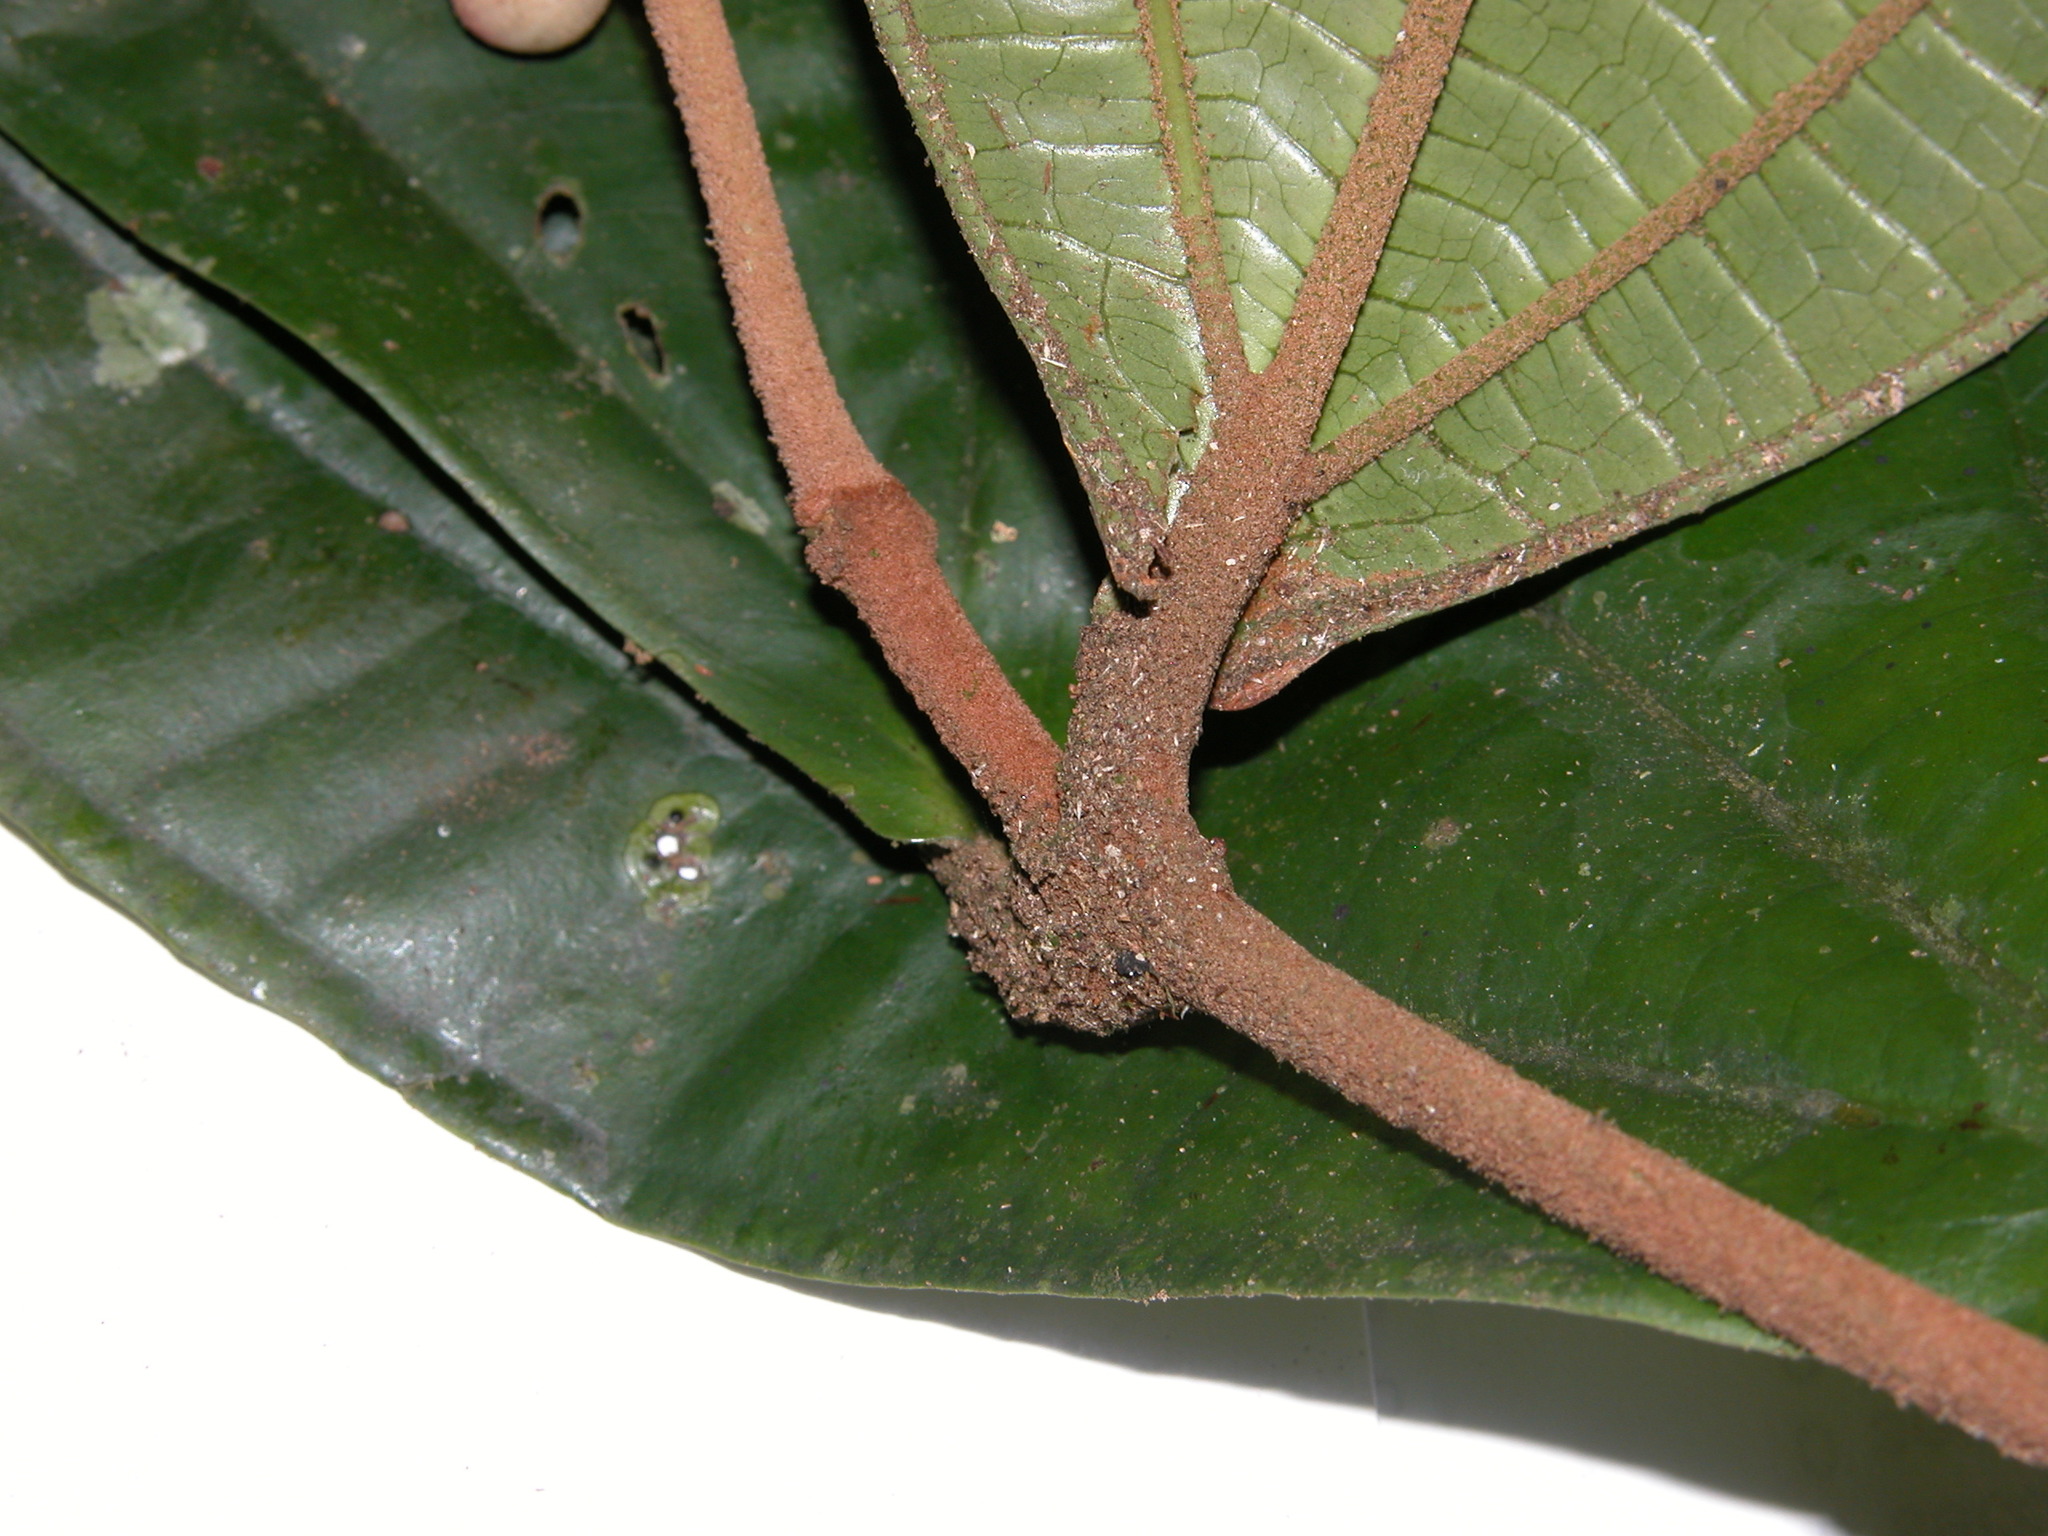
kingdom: Plantae
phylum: Tracheophyta
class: Magnoliopsida
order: Myrtales
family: Melastomataceae
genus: Miconia
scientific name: Miconia simplex
